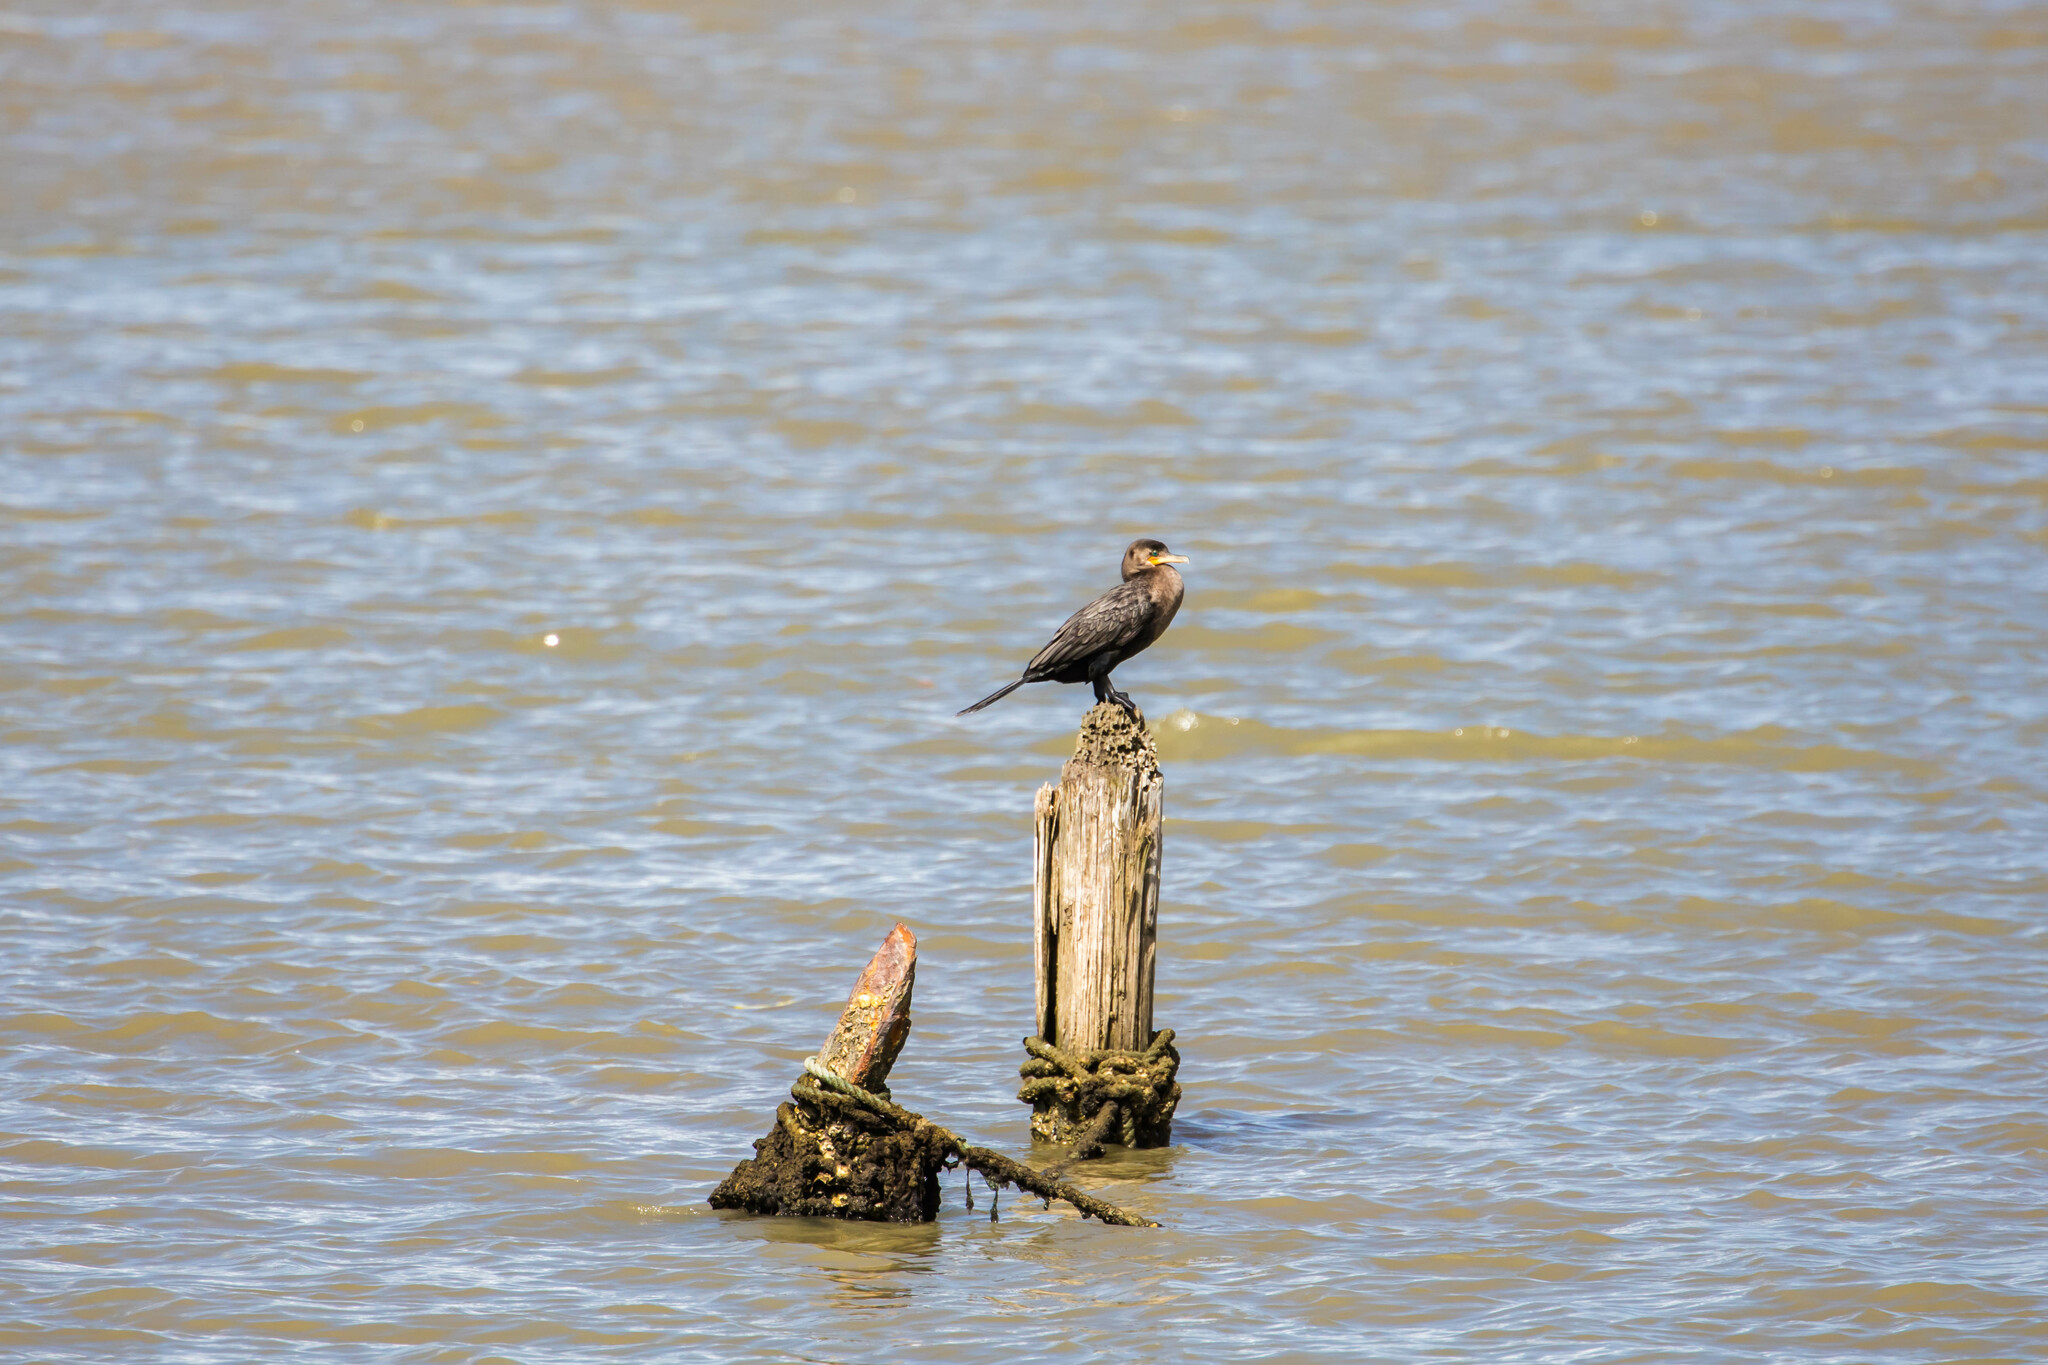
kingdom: Animalia
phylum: Chordata
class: Aves
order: Suliformes
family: Phalacrocoracidae
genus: Phalacrocorax
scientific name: Phalacrocorax brasilianus
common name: Neotropic cormorant
